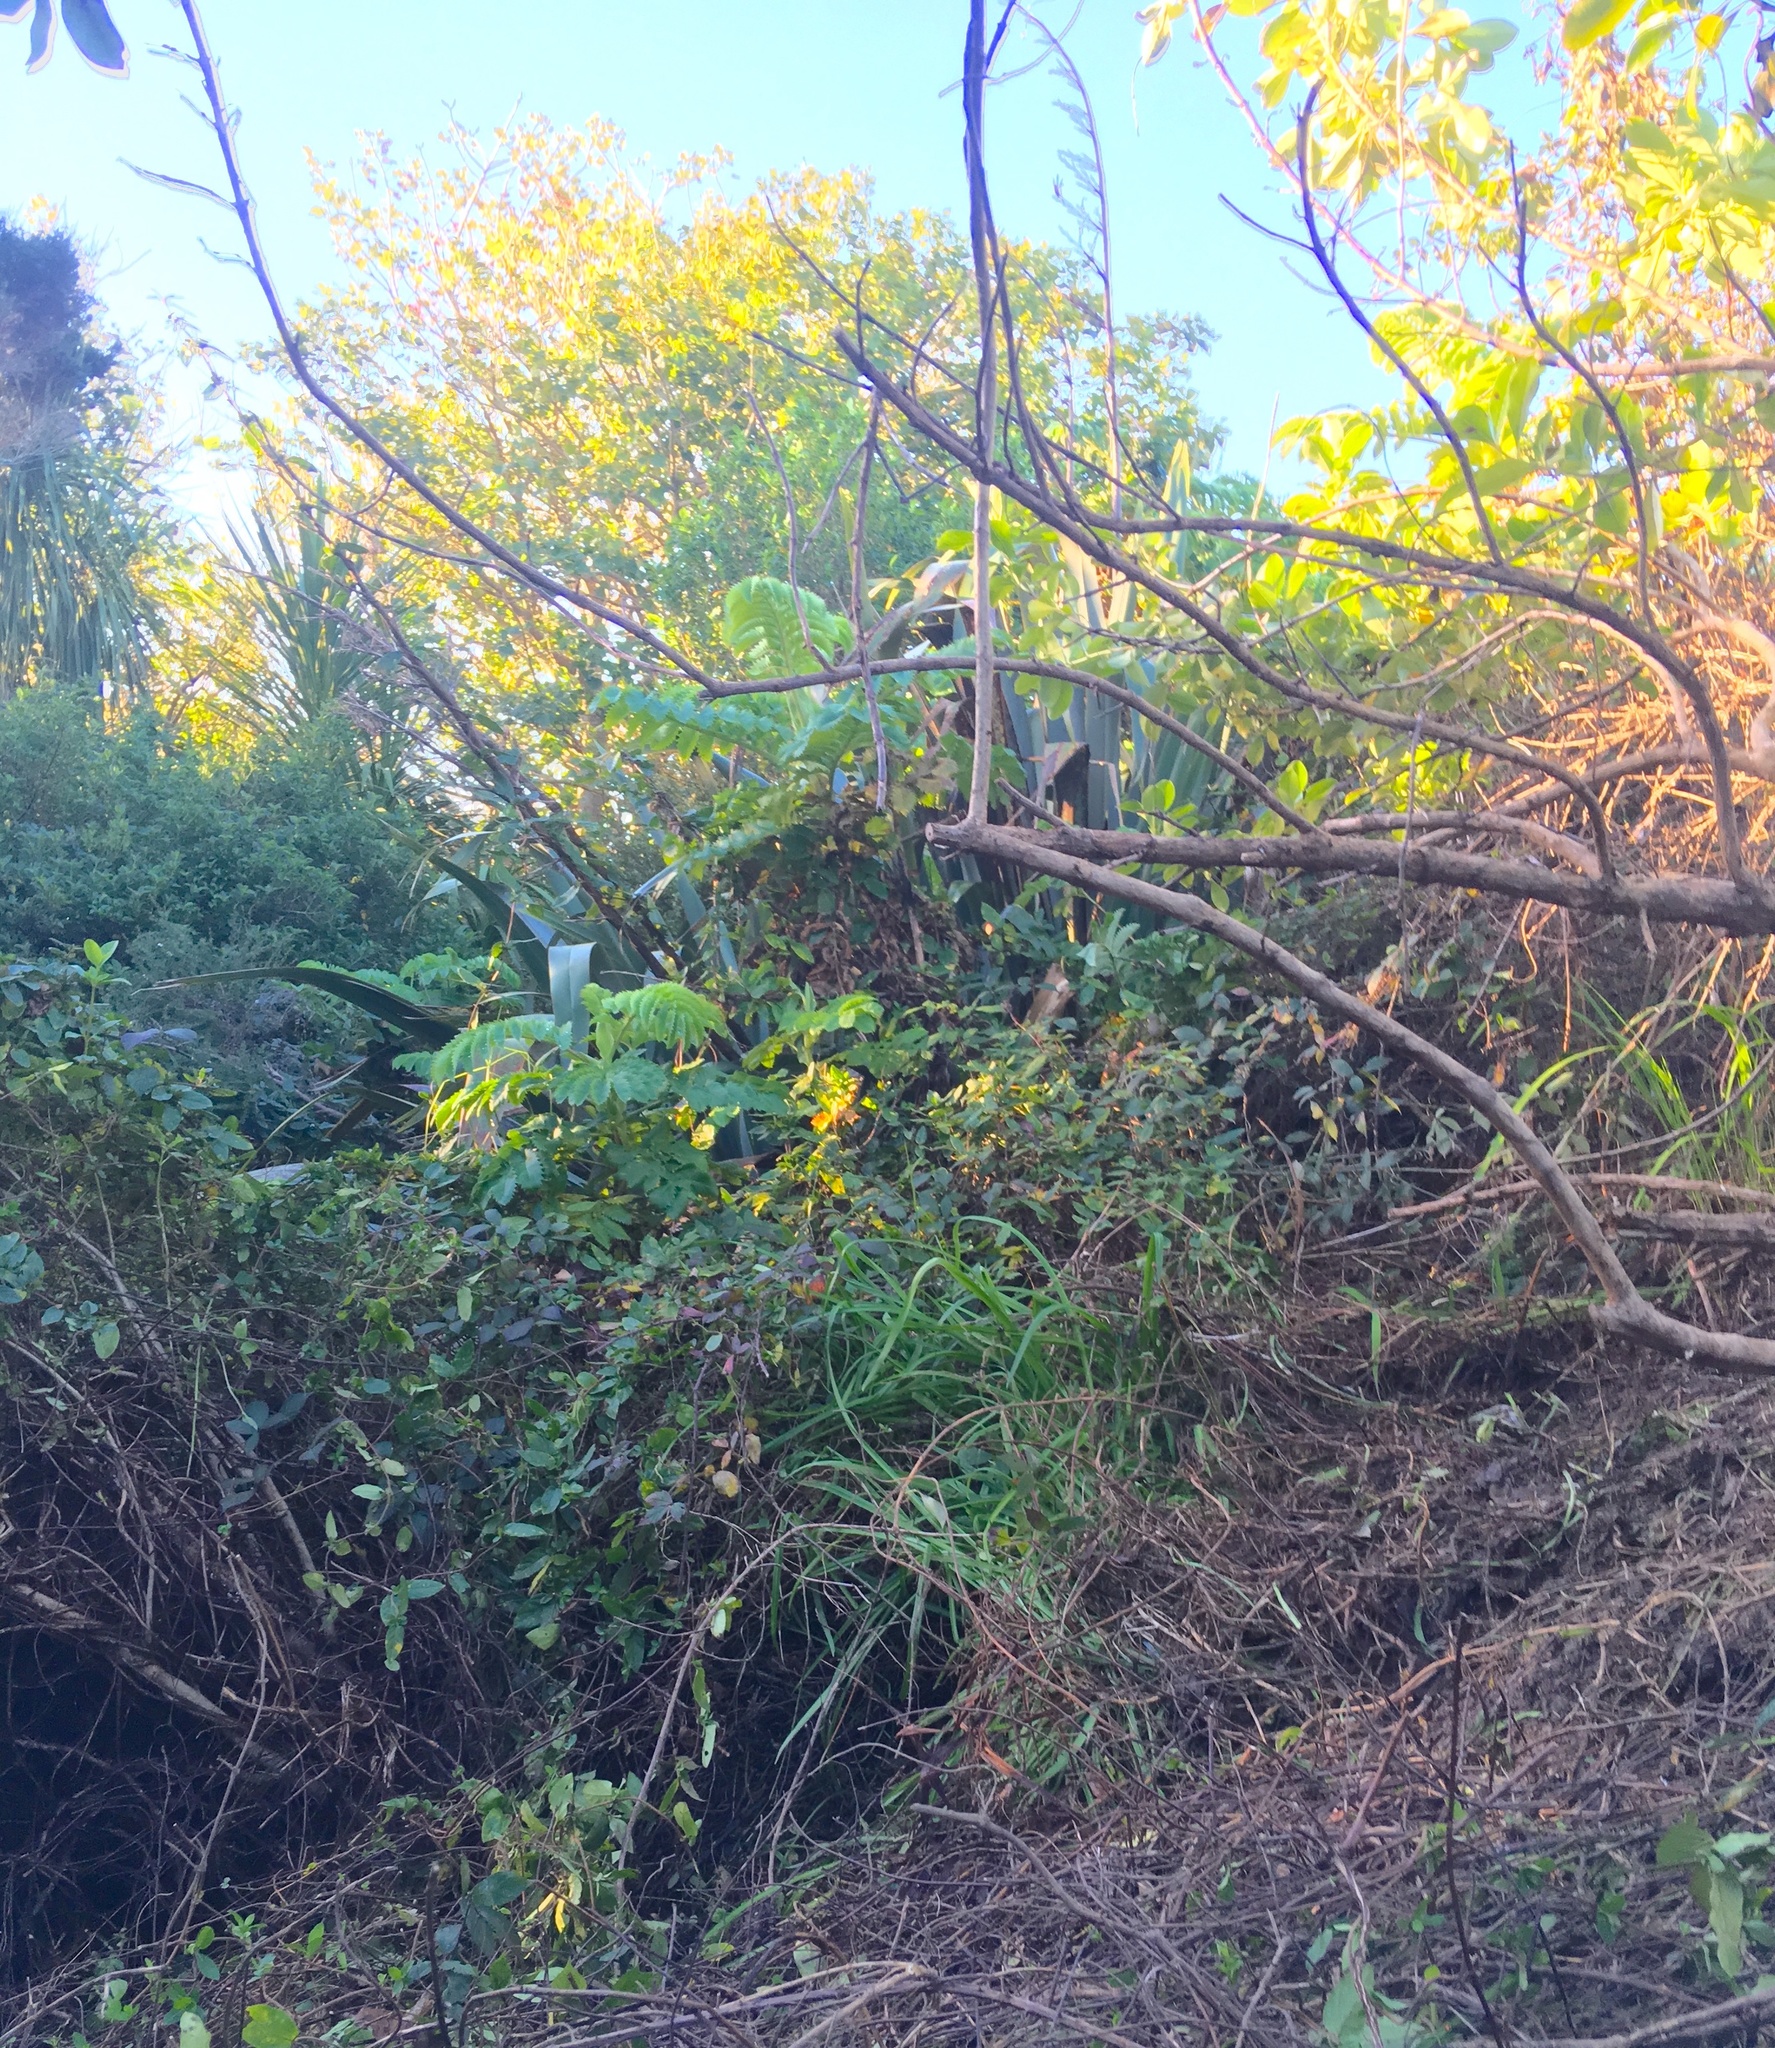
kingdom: Plantae
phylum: Tracheophyta
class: Magnoliopsida
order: Geraniales
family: Melianthaceae
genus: Melianthus
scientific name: Melianthus major
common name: Honey-flower
